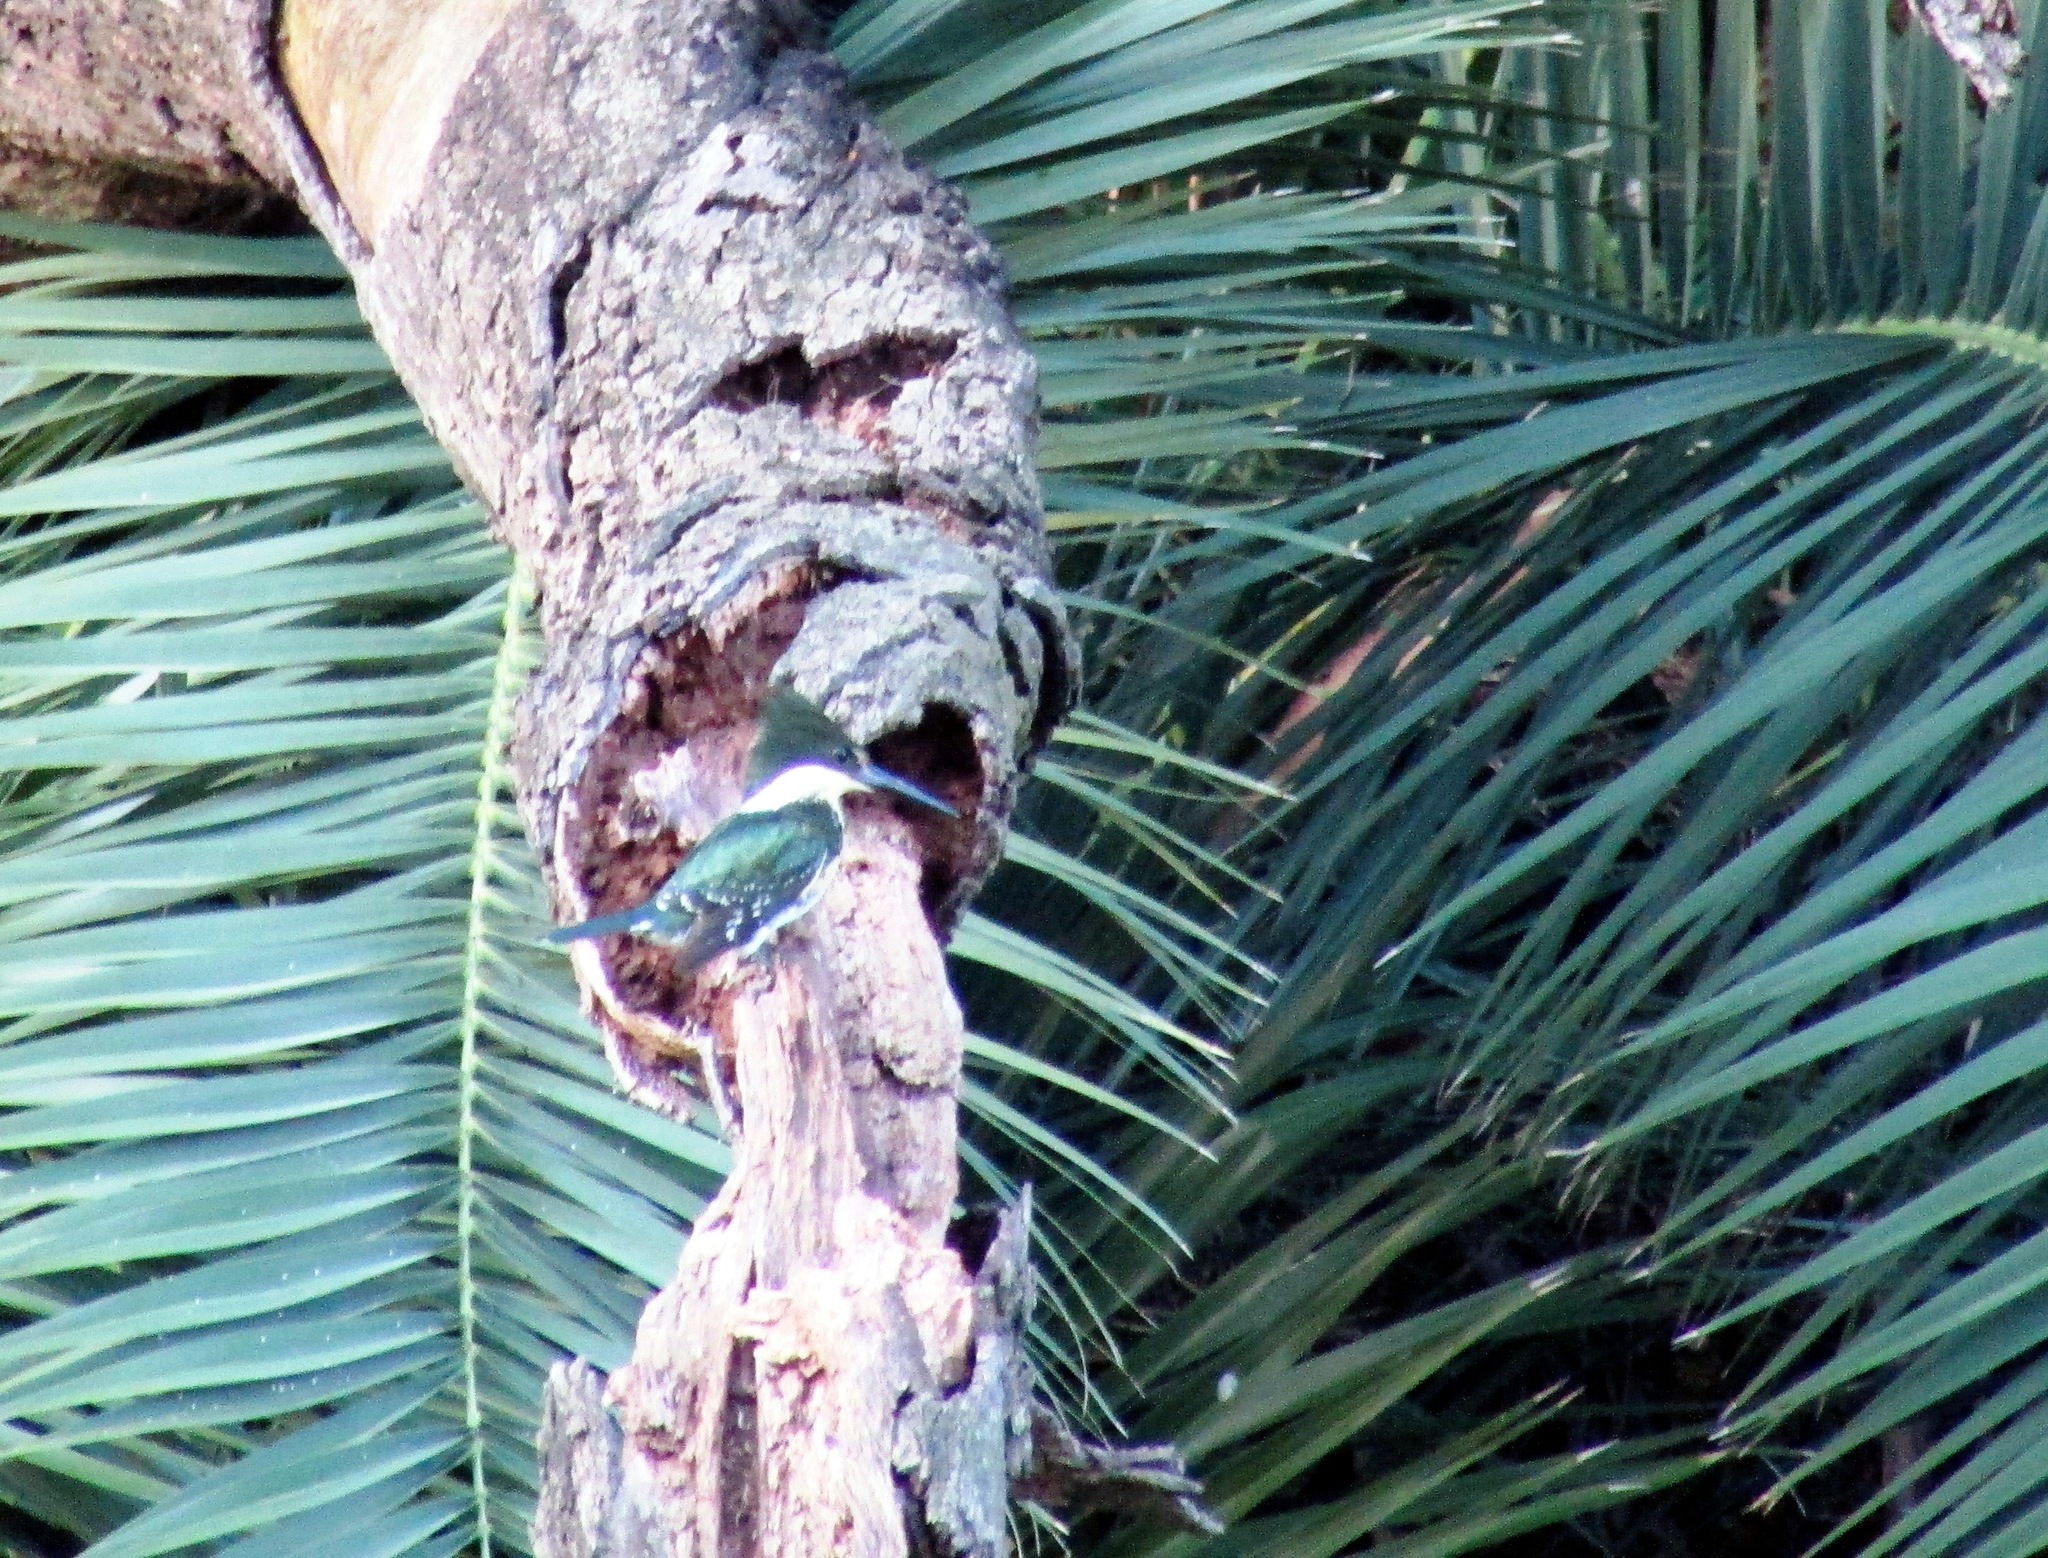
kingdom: Animalia
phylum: Chordata
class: Aves
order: Coraciiformes
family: Alcedinidae
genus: Chloroceryle
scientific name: Chloroceryle americana
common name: Green kingfisher
